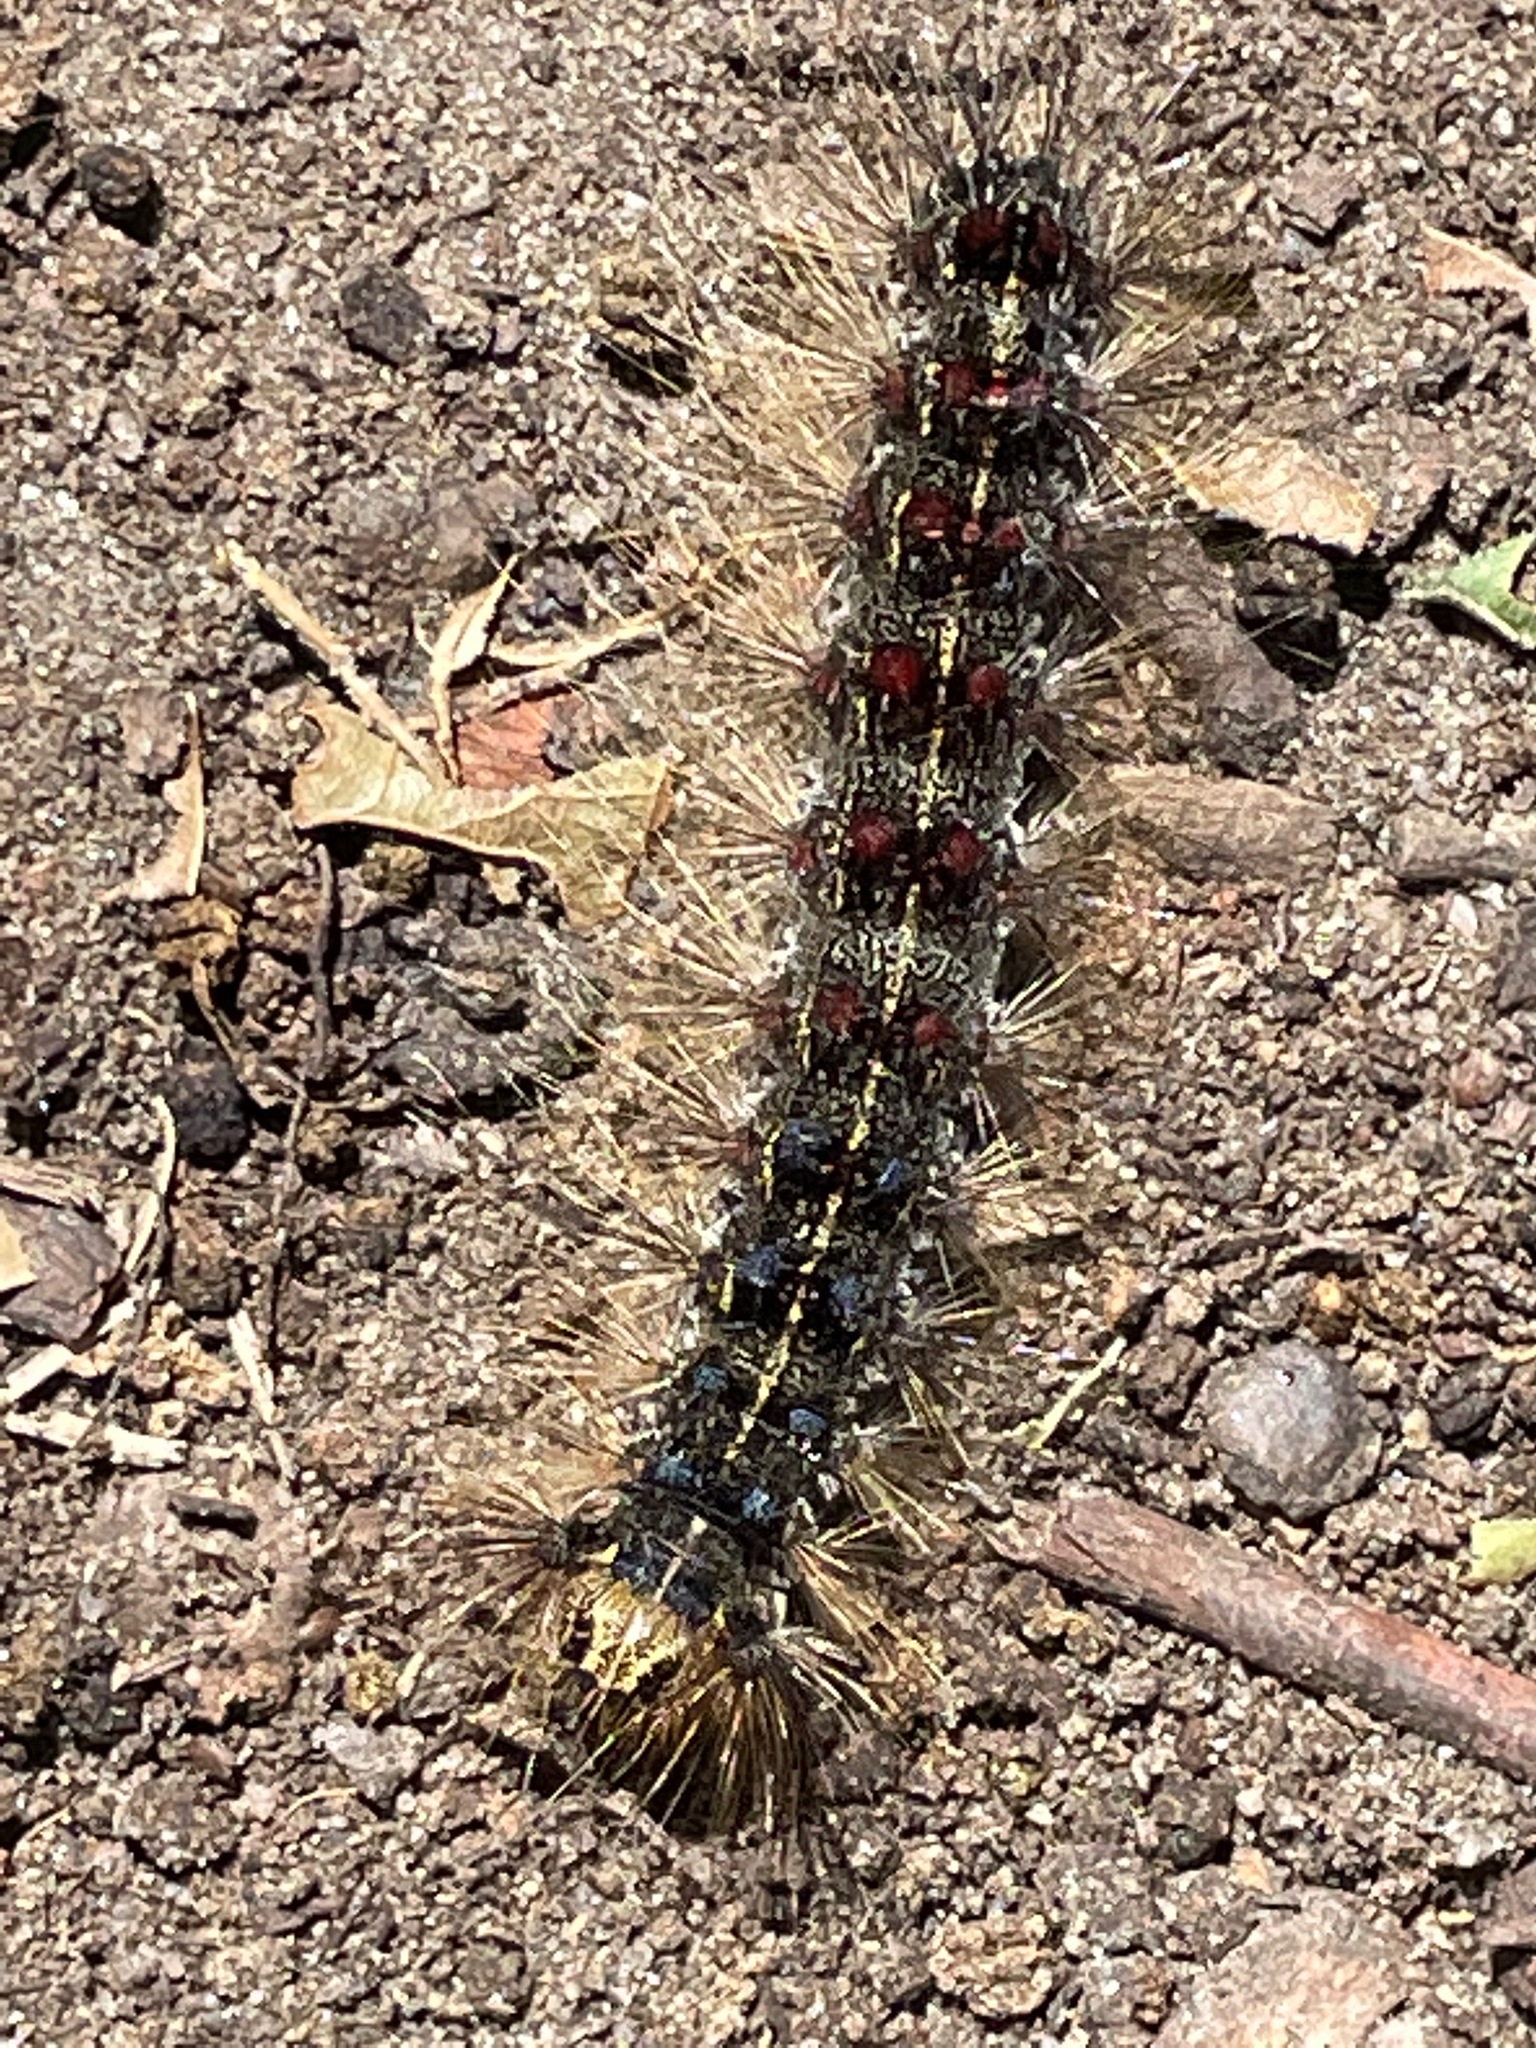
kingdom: Animalia
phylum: Arthropoda
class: Insecta
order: Lepidoptera
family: Erebidae
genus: Lymantria
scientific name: Lymantria dispar
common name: Gypsy moth
